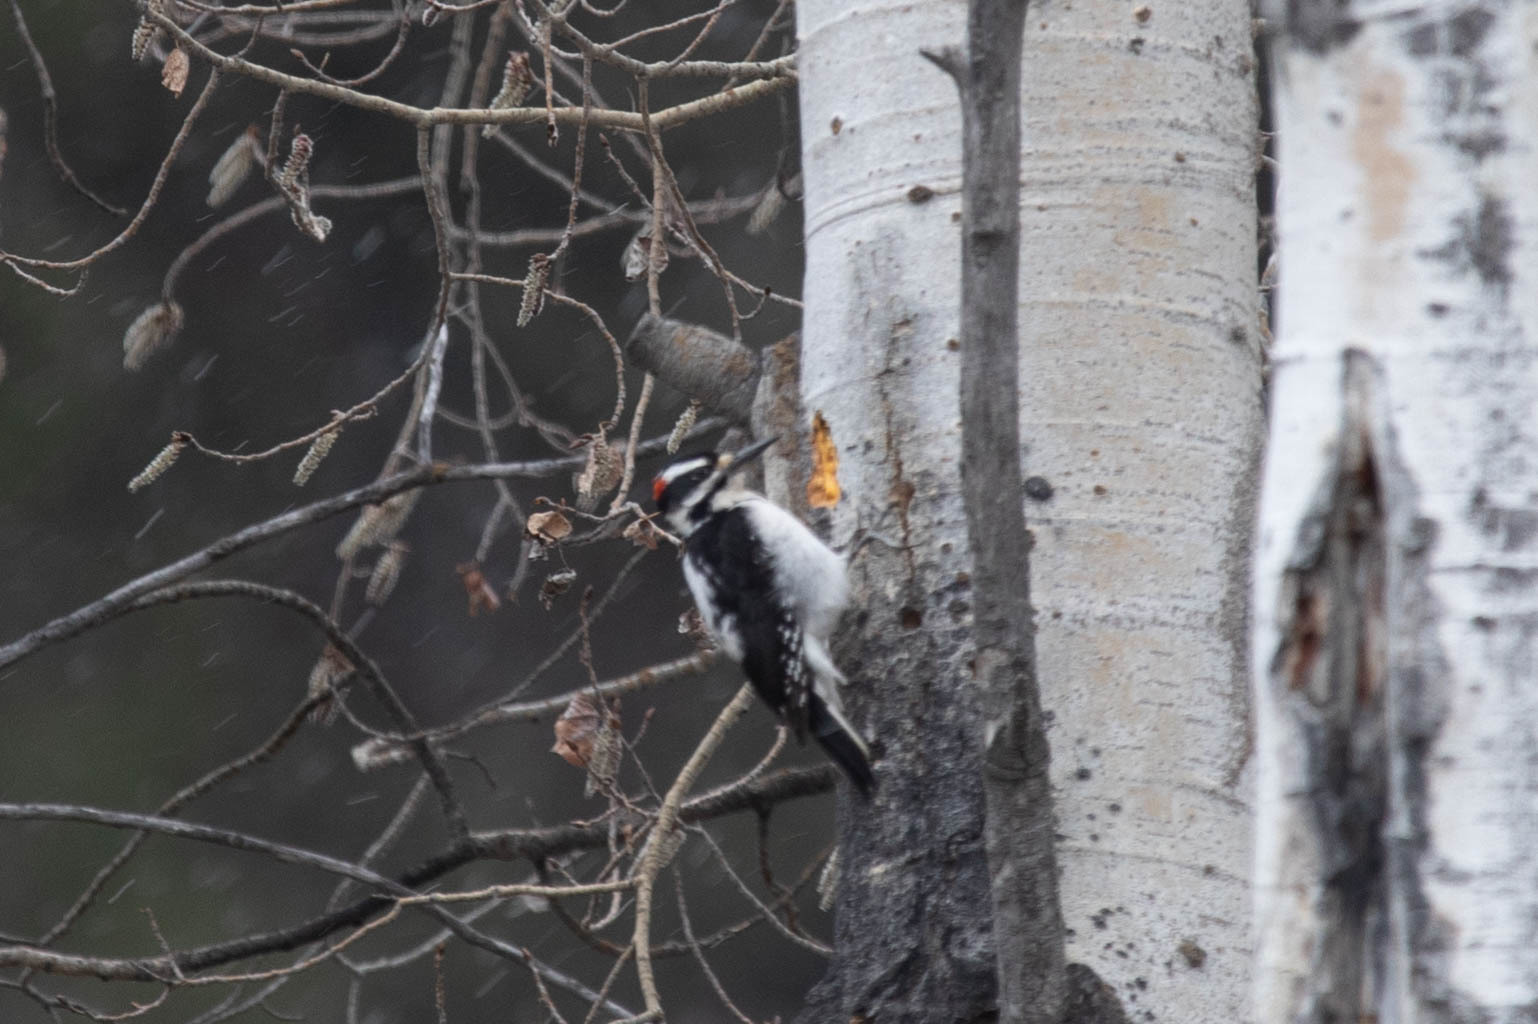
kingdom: Animalia
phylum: Chordata
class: Aves
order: Piciformes
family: Picidae
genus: Leuconotopicus
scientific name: Leuconotopicus villosus
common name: Hairy woodpecker
